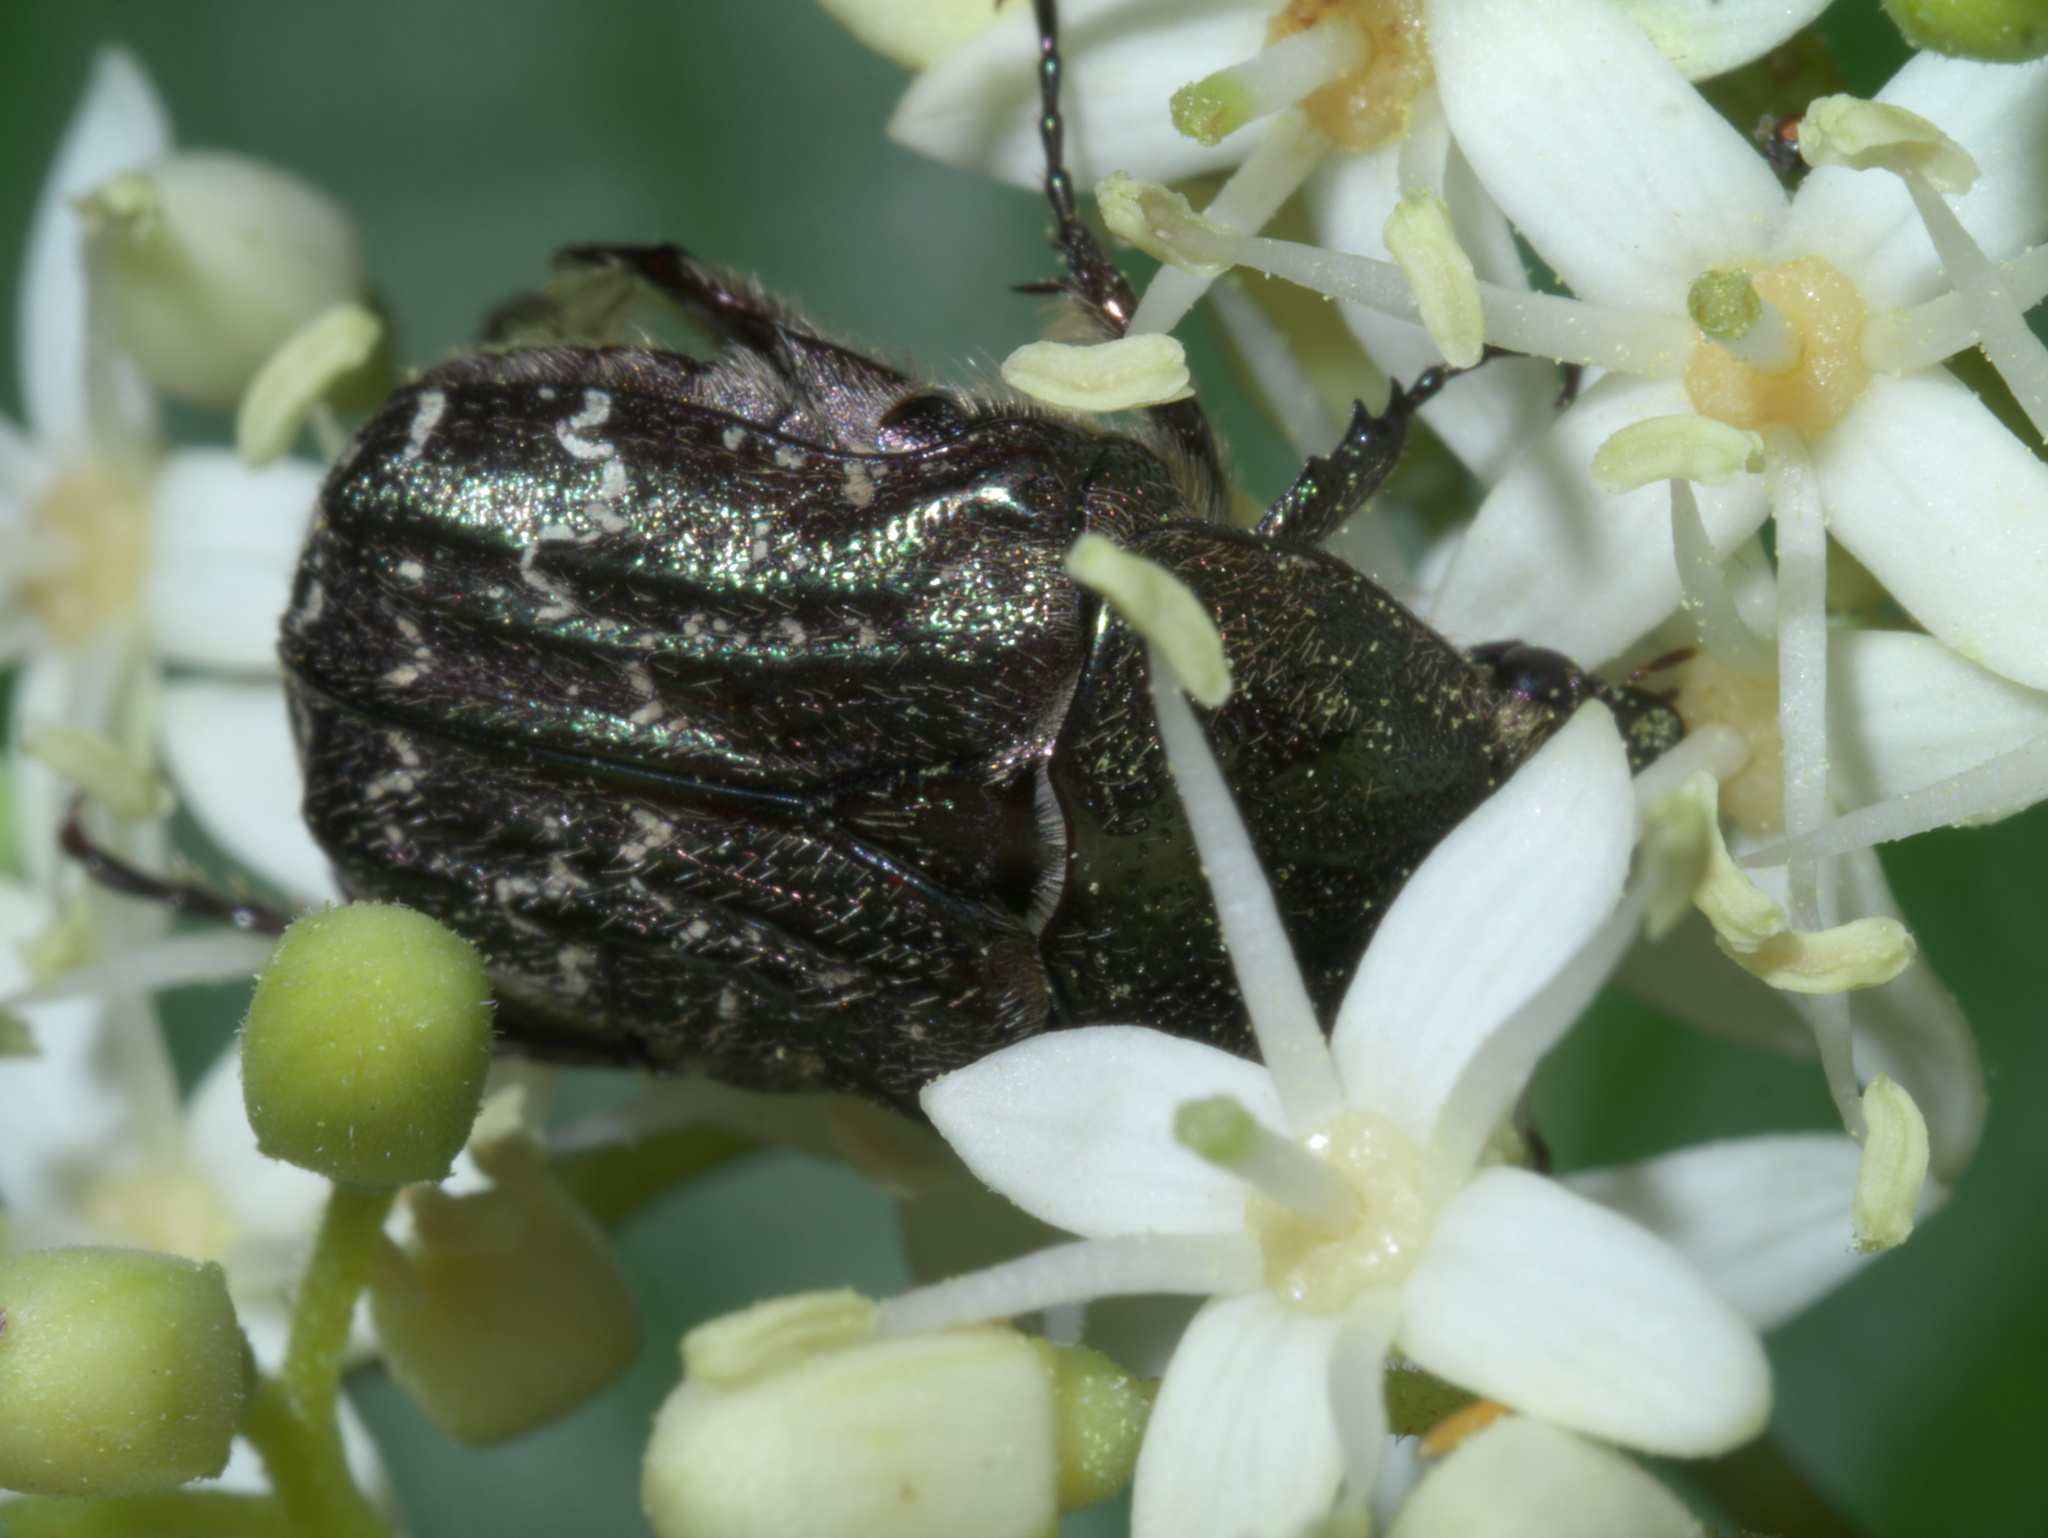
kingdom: Animalia
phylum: Arthropoda
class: Insecta
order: Coleoptera
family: Scarabaeidae
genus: Euphoria
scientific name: Euphoria sepulcralis
